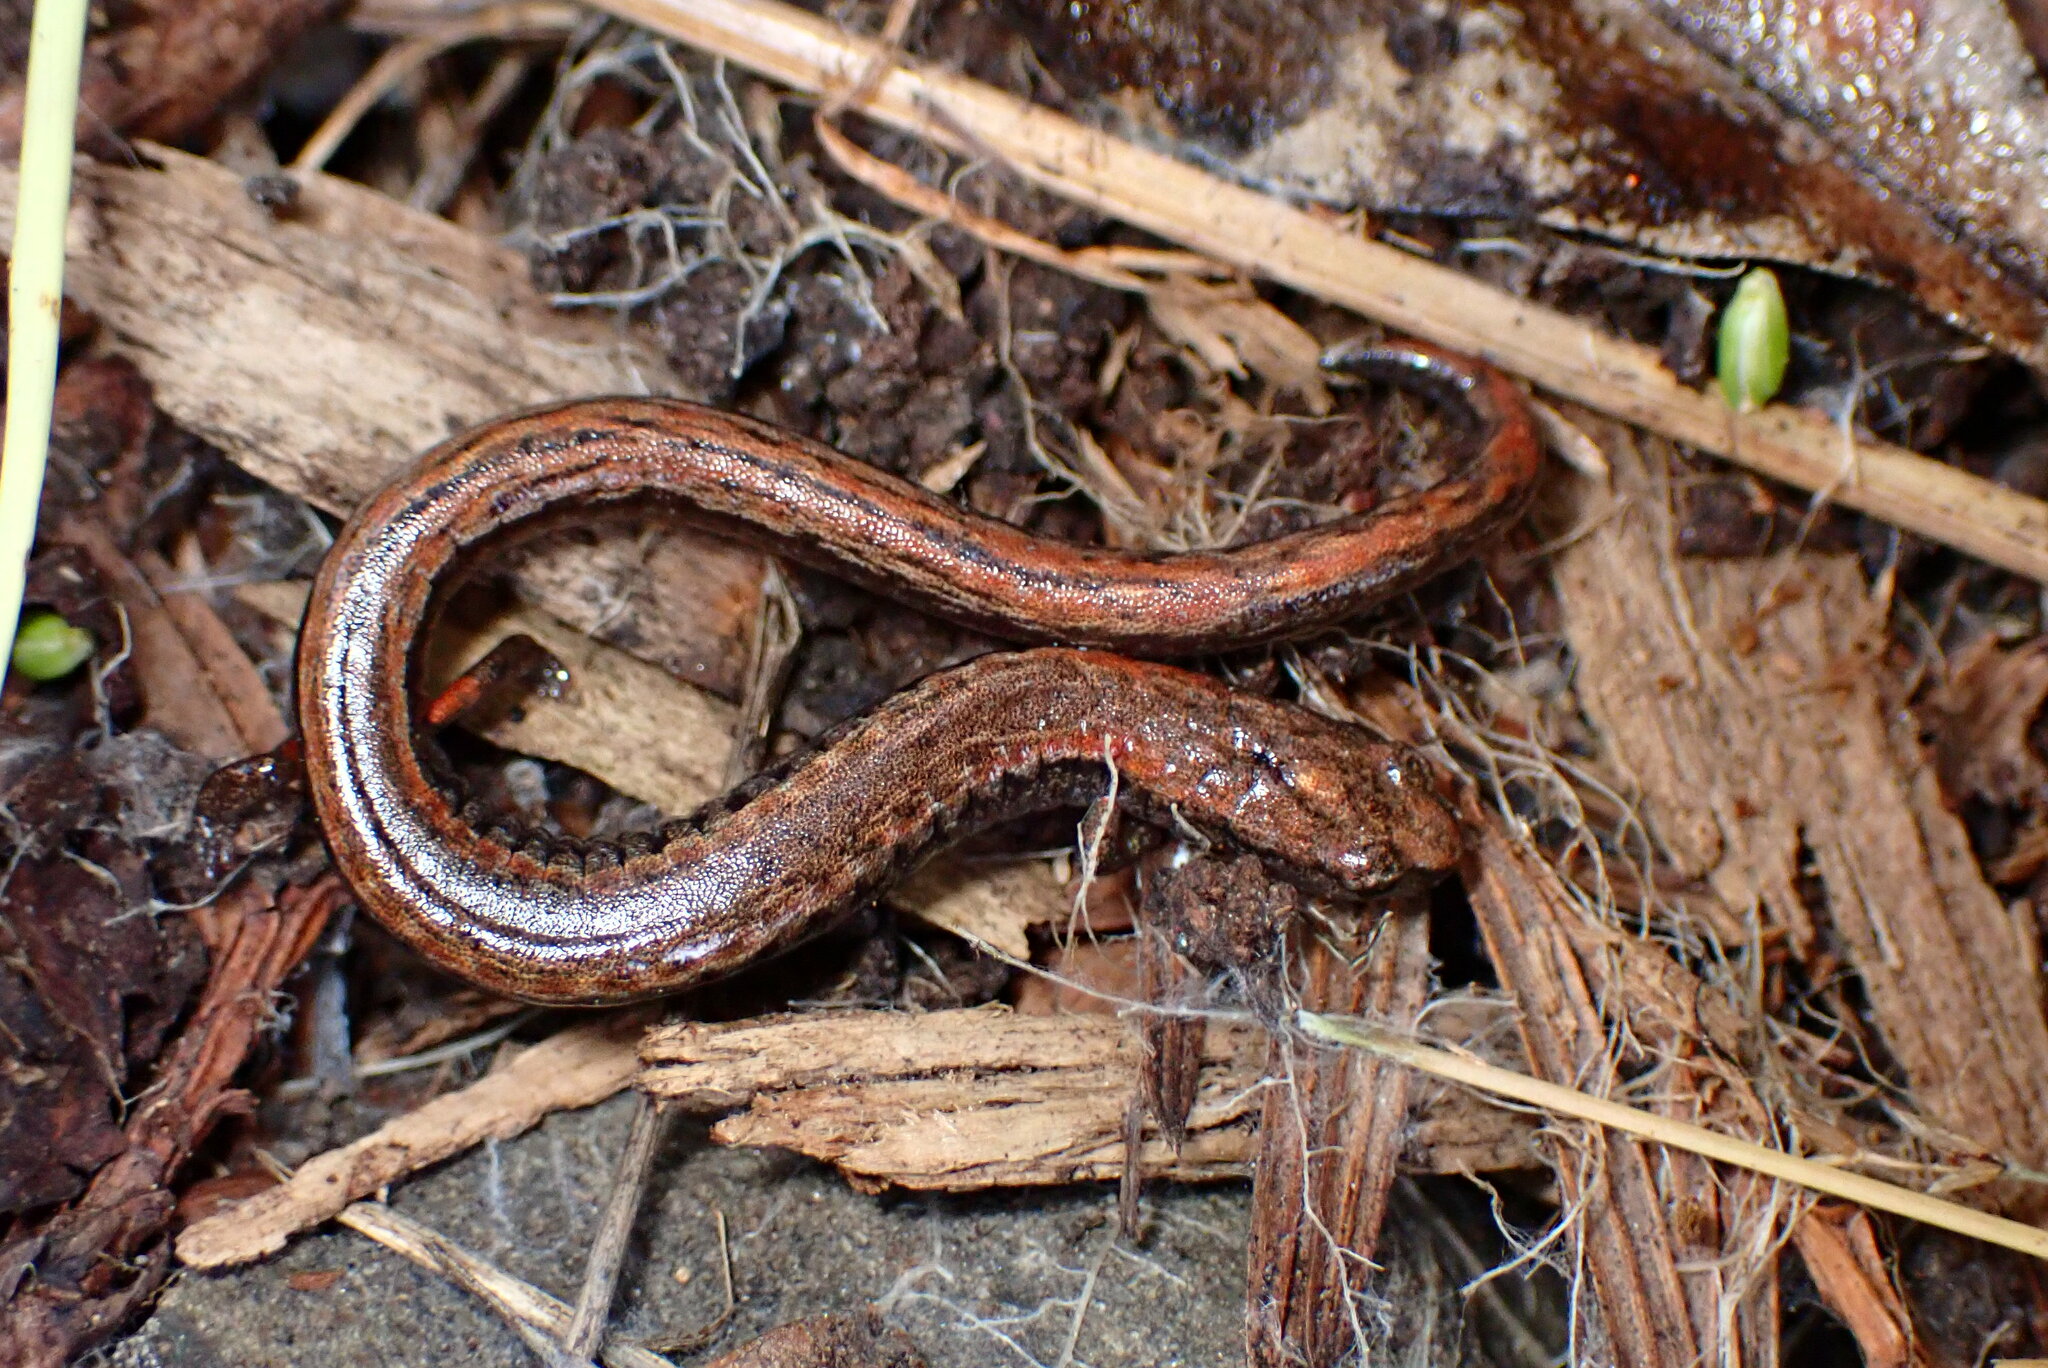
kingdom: Animalia
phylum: Chordata
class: Amphibia
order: Caudata
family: Plethodontidae
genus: Batrachoseps
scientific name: Batrachoseps attenuatus
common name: California slender salamander
